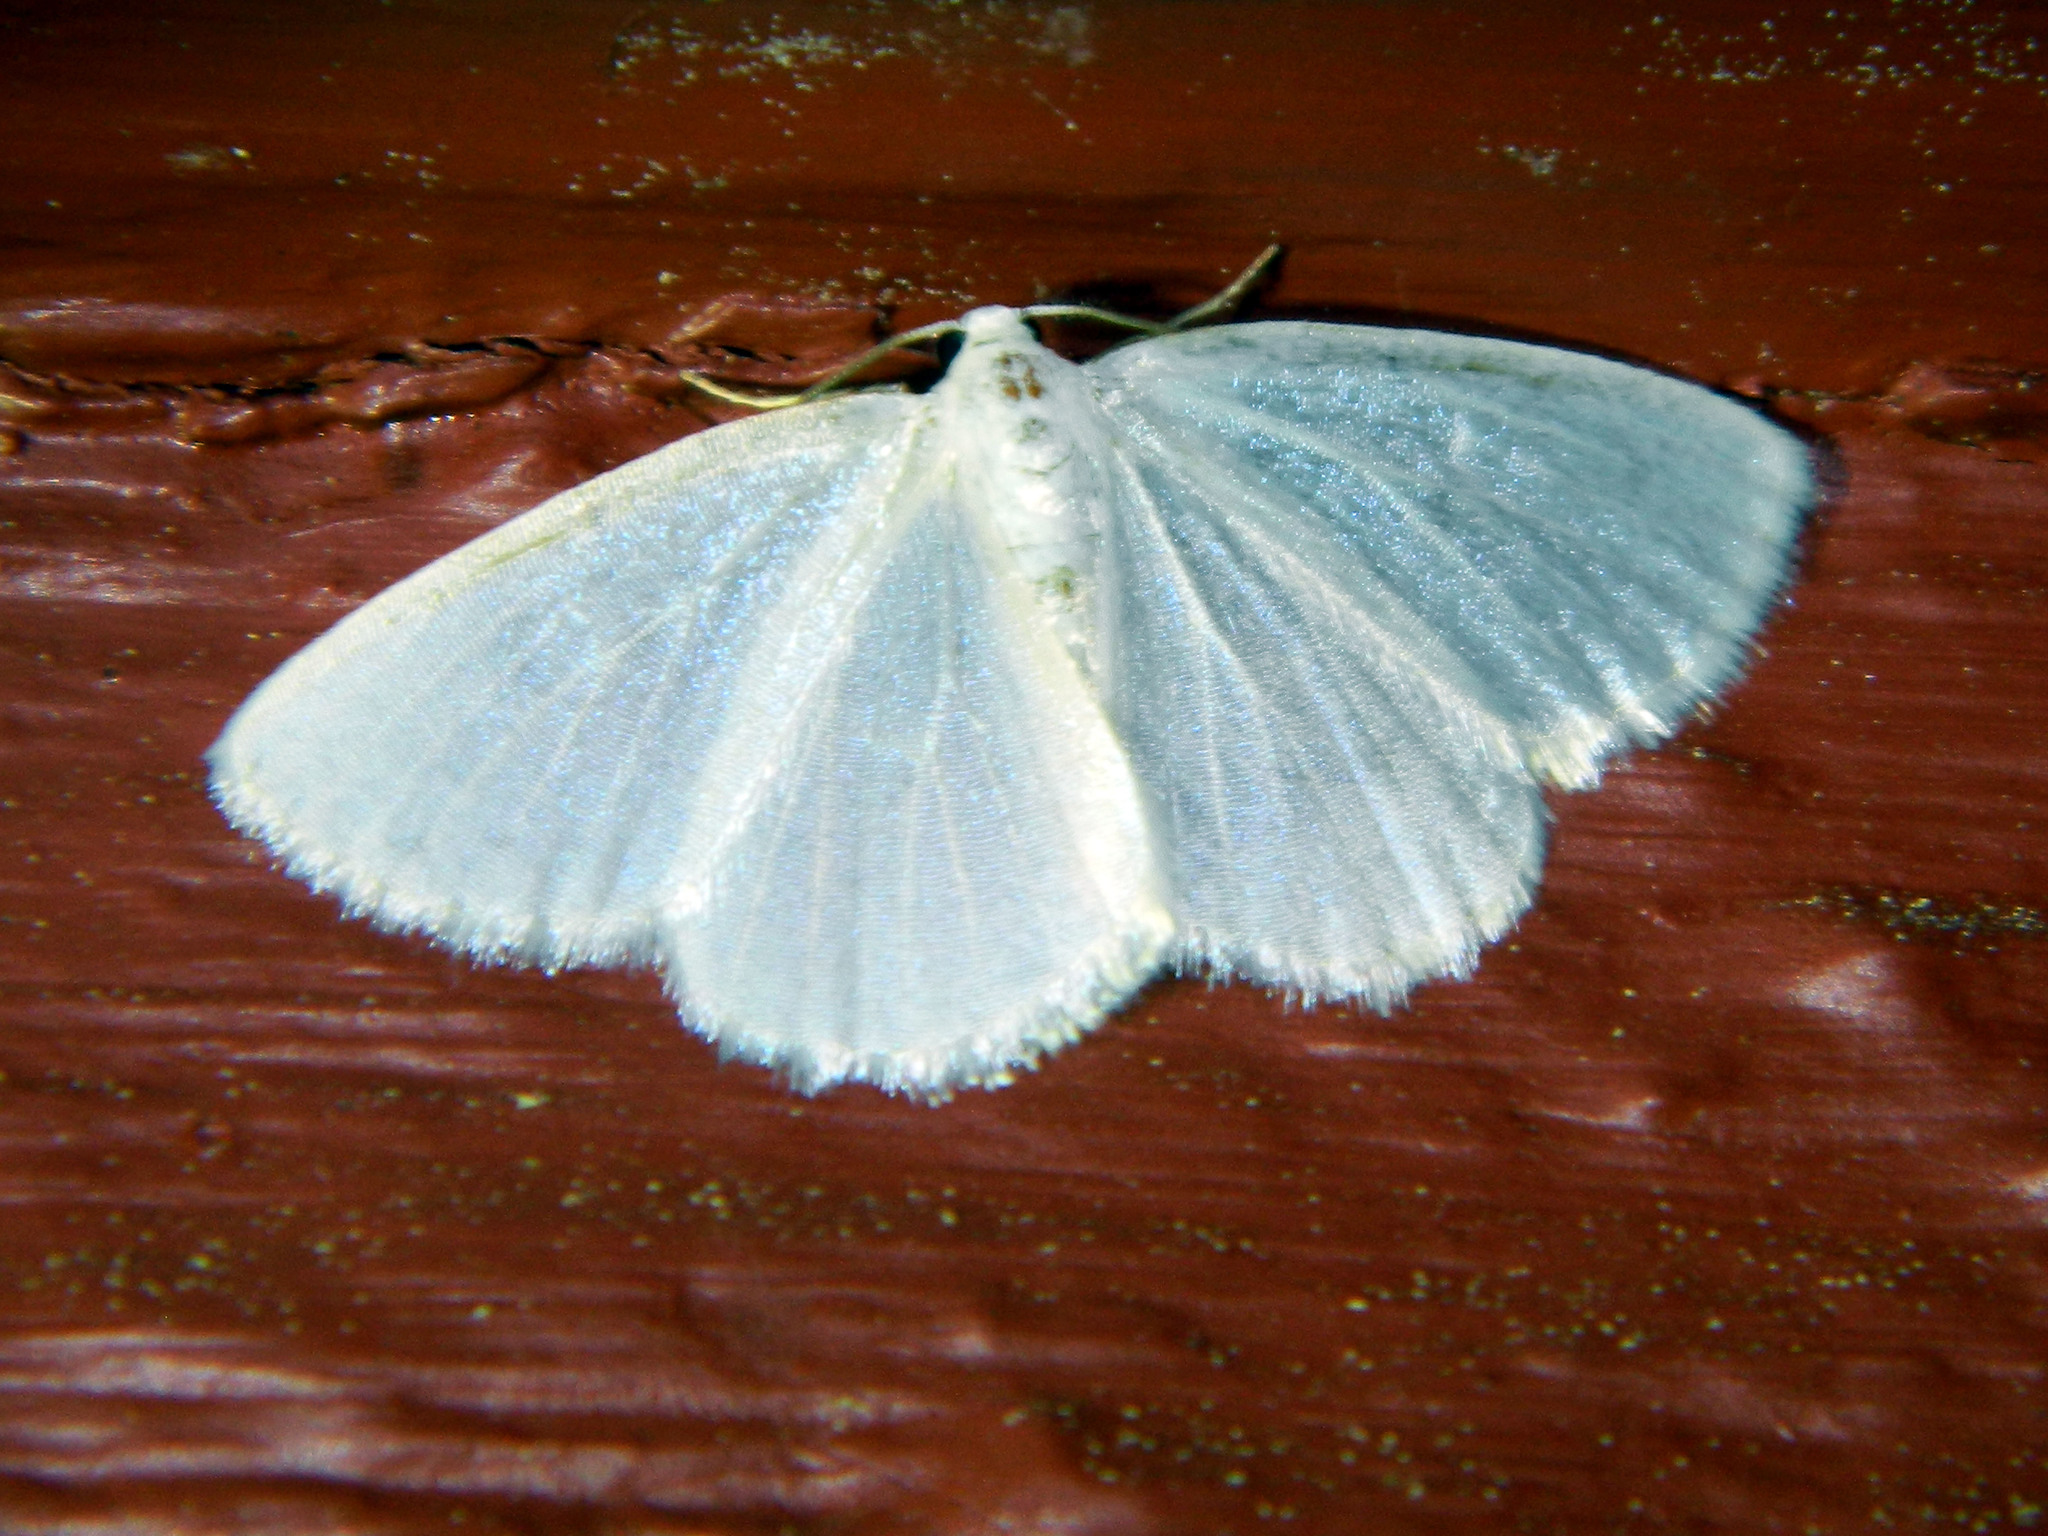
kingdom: Animalia
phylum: Arthropoda
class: Insecta
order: Lepidoptera
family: Geometridae
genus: Lomographa
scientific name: Lomographa vestaliata
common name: White spring moth
